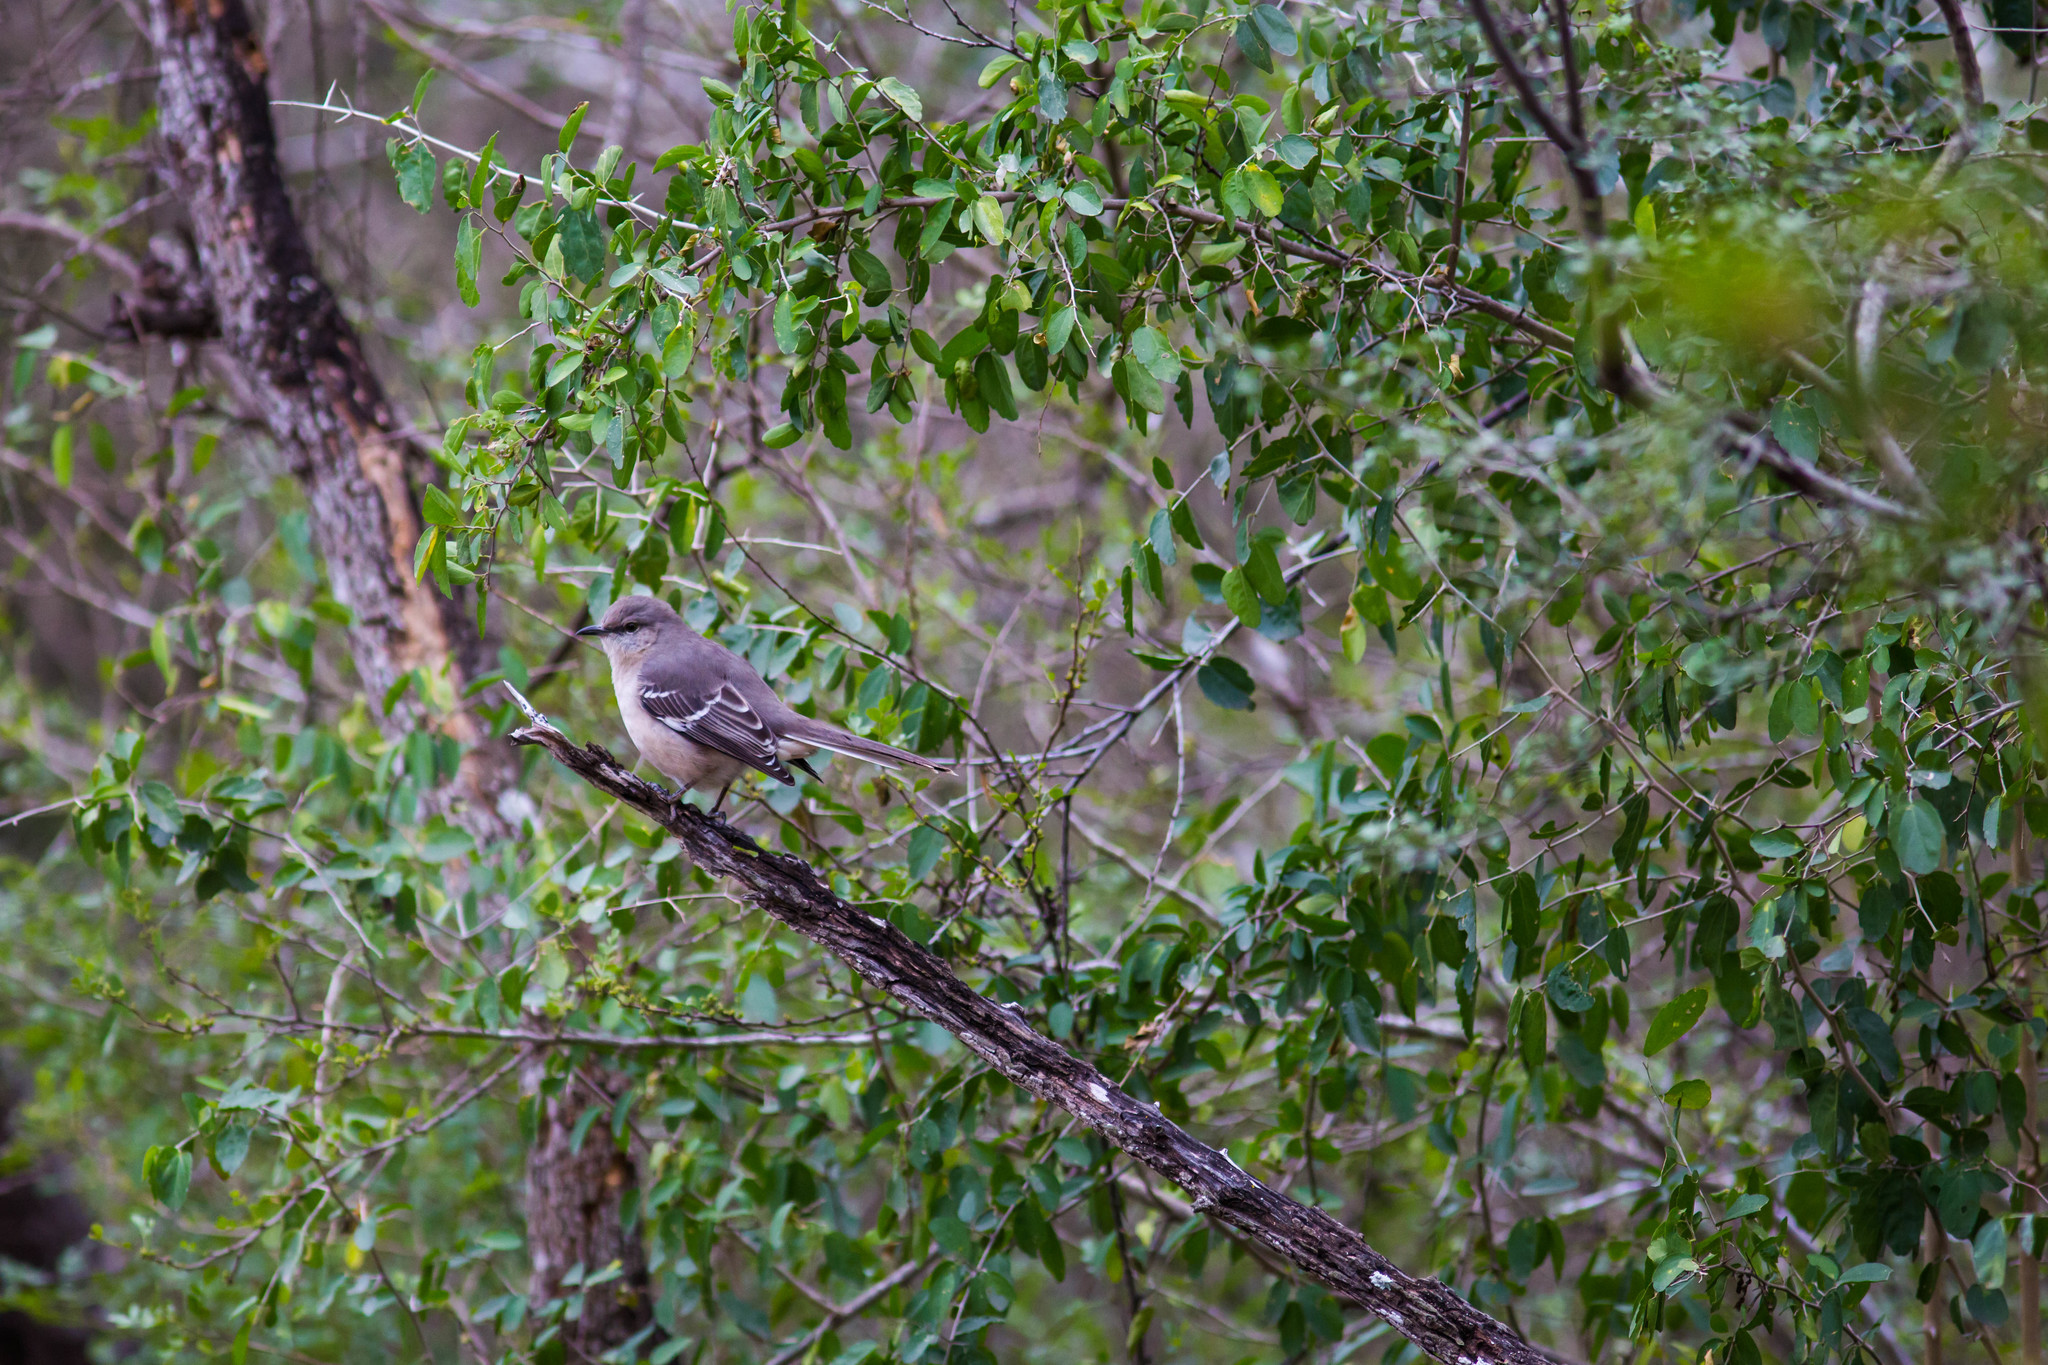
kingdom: Animalia
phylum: Chordata
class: Aves
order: Passeriformes
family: Mimidae
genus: Mimus
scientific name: Mimus polyglottos
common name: Northern mockingbird
